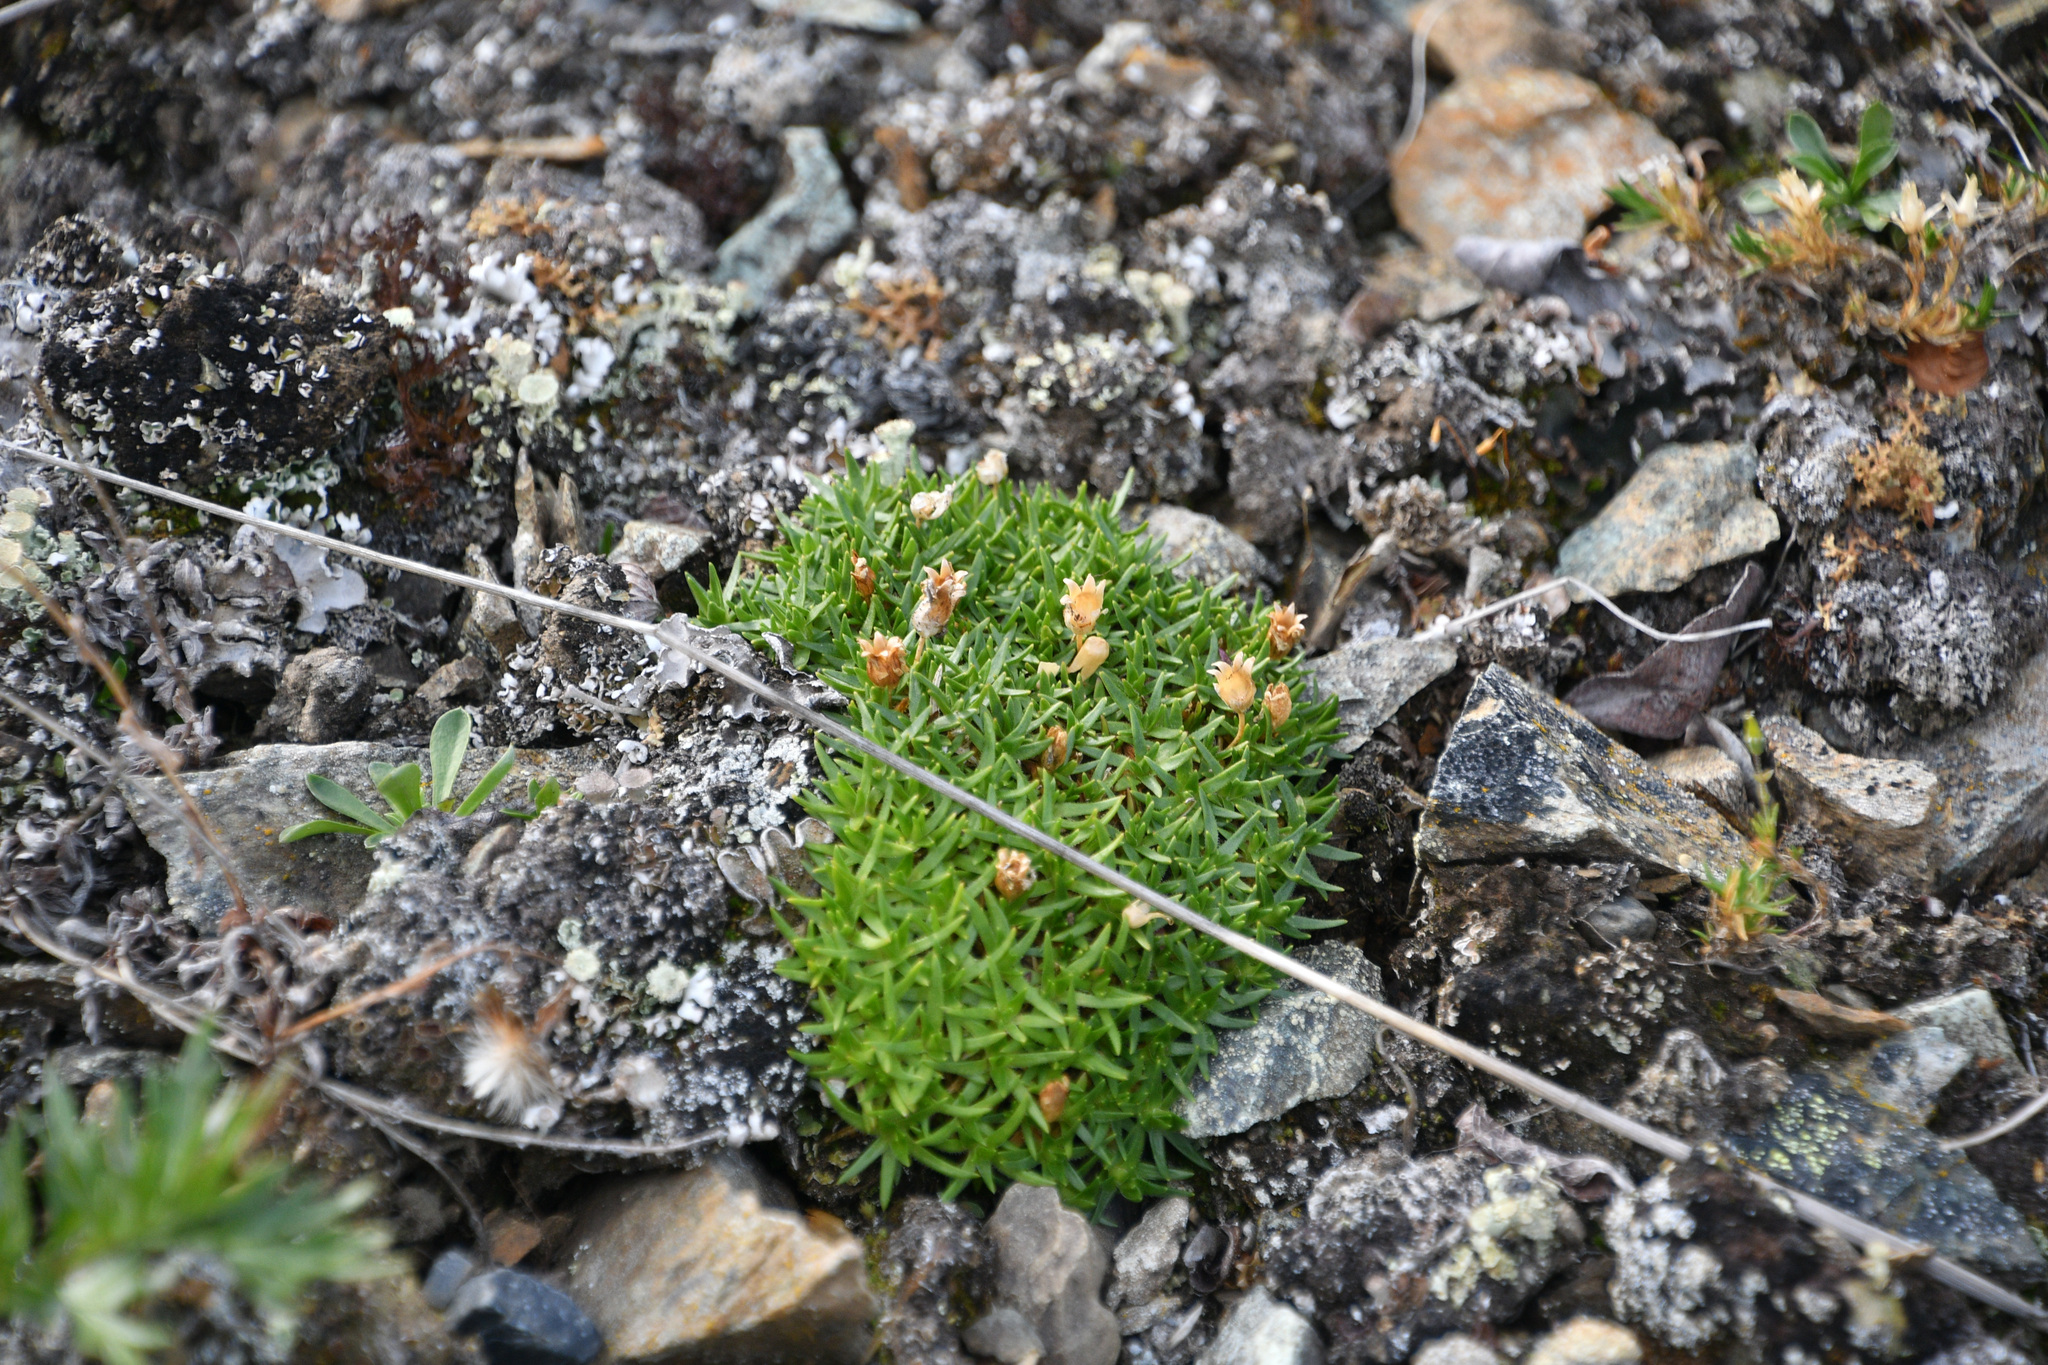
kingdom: Plantae
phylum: Tracheophyta
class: Magnoliopsida
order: Caryophyllales
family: Caryophyllaceae
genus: Silene
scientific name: Silene acaulis
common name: Moss campion
